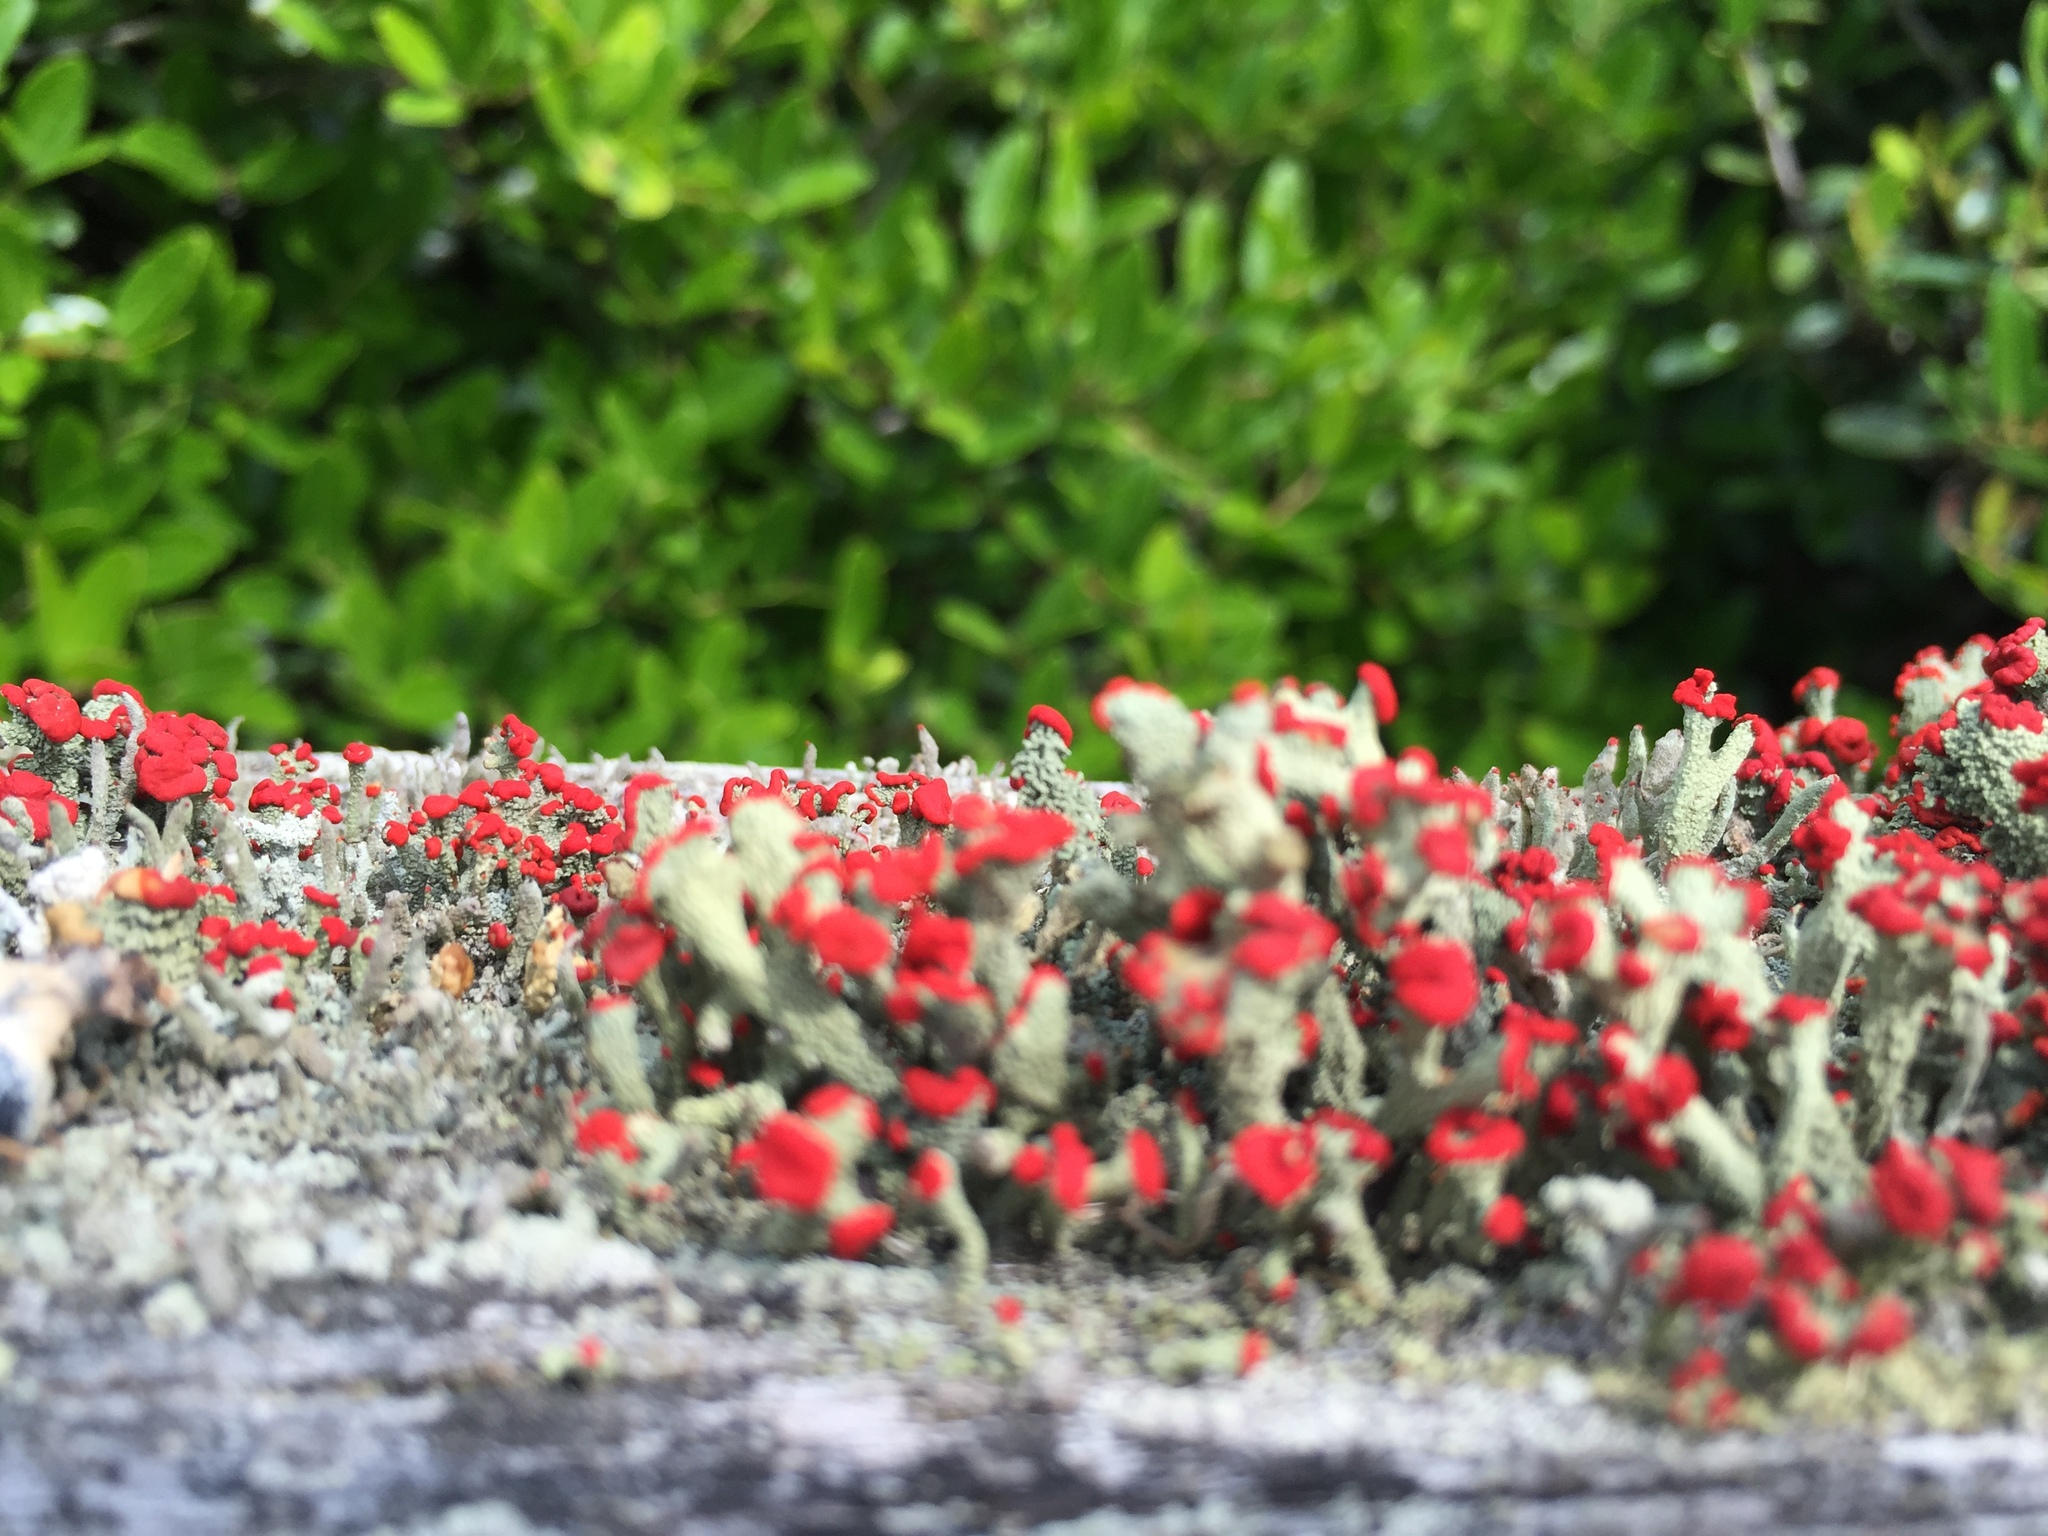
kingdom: Fungi
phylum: Ascomycota
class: Lecanoromycetes
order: Lecanorales
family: Cladoniaceae
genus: Cladonia
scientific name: Cladonia cristatella
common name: British soldier lichen
